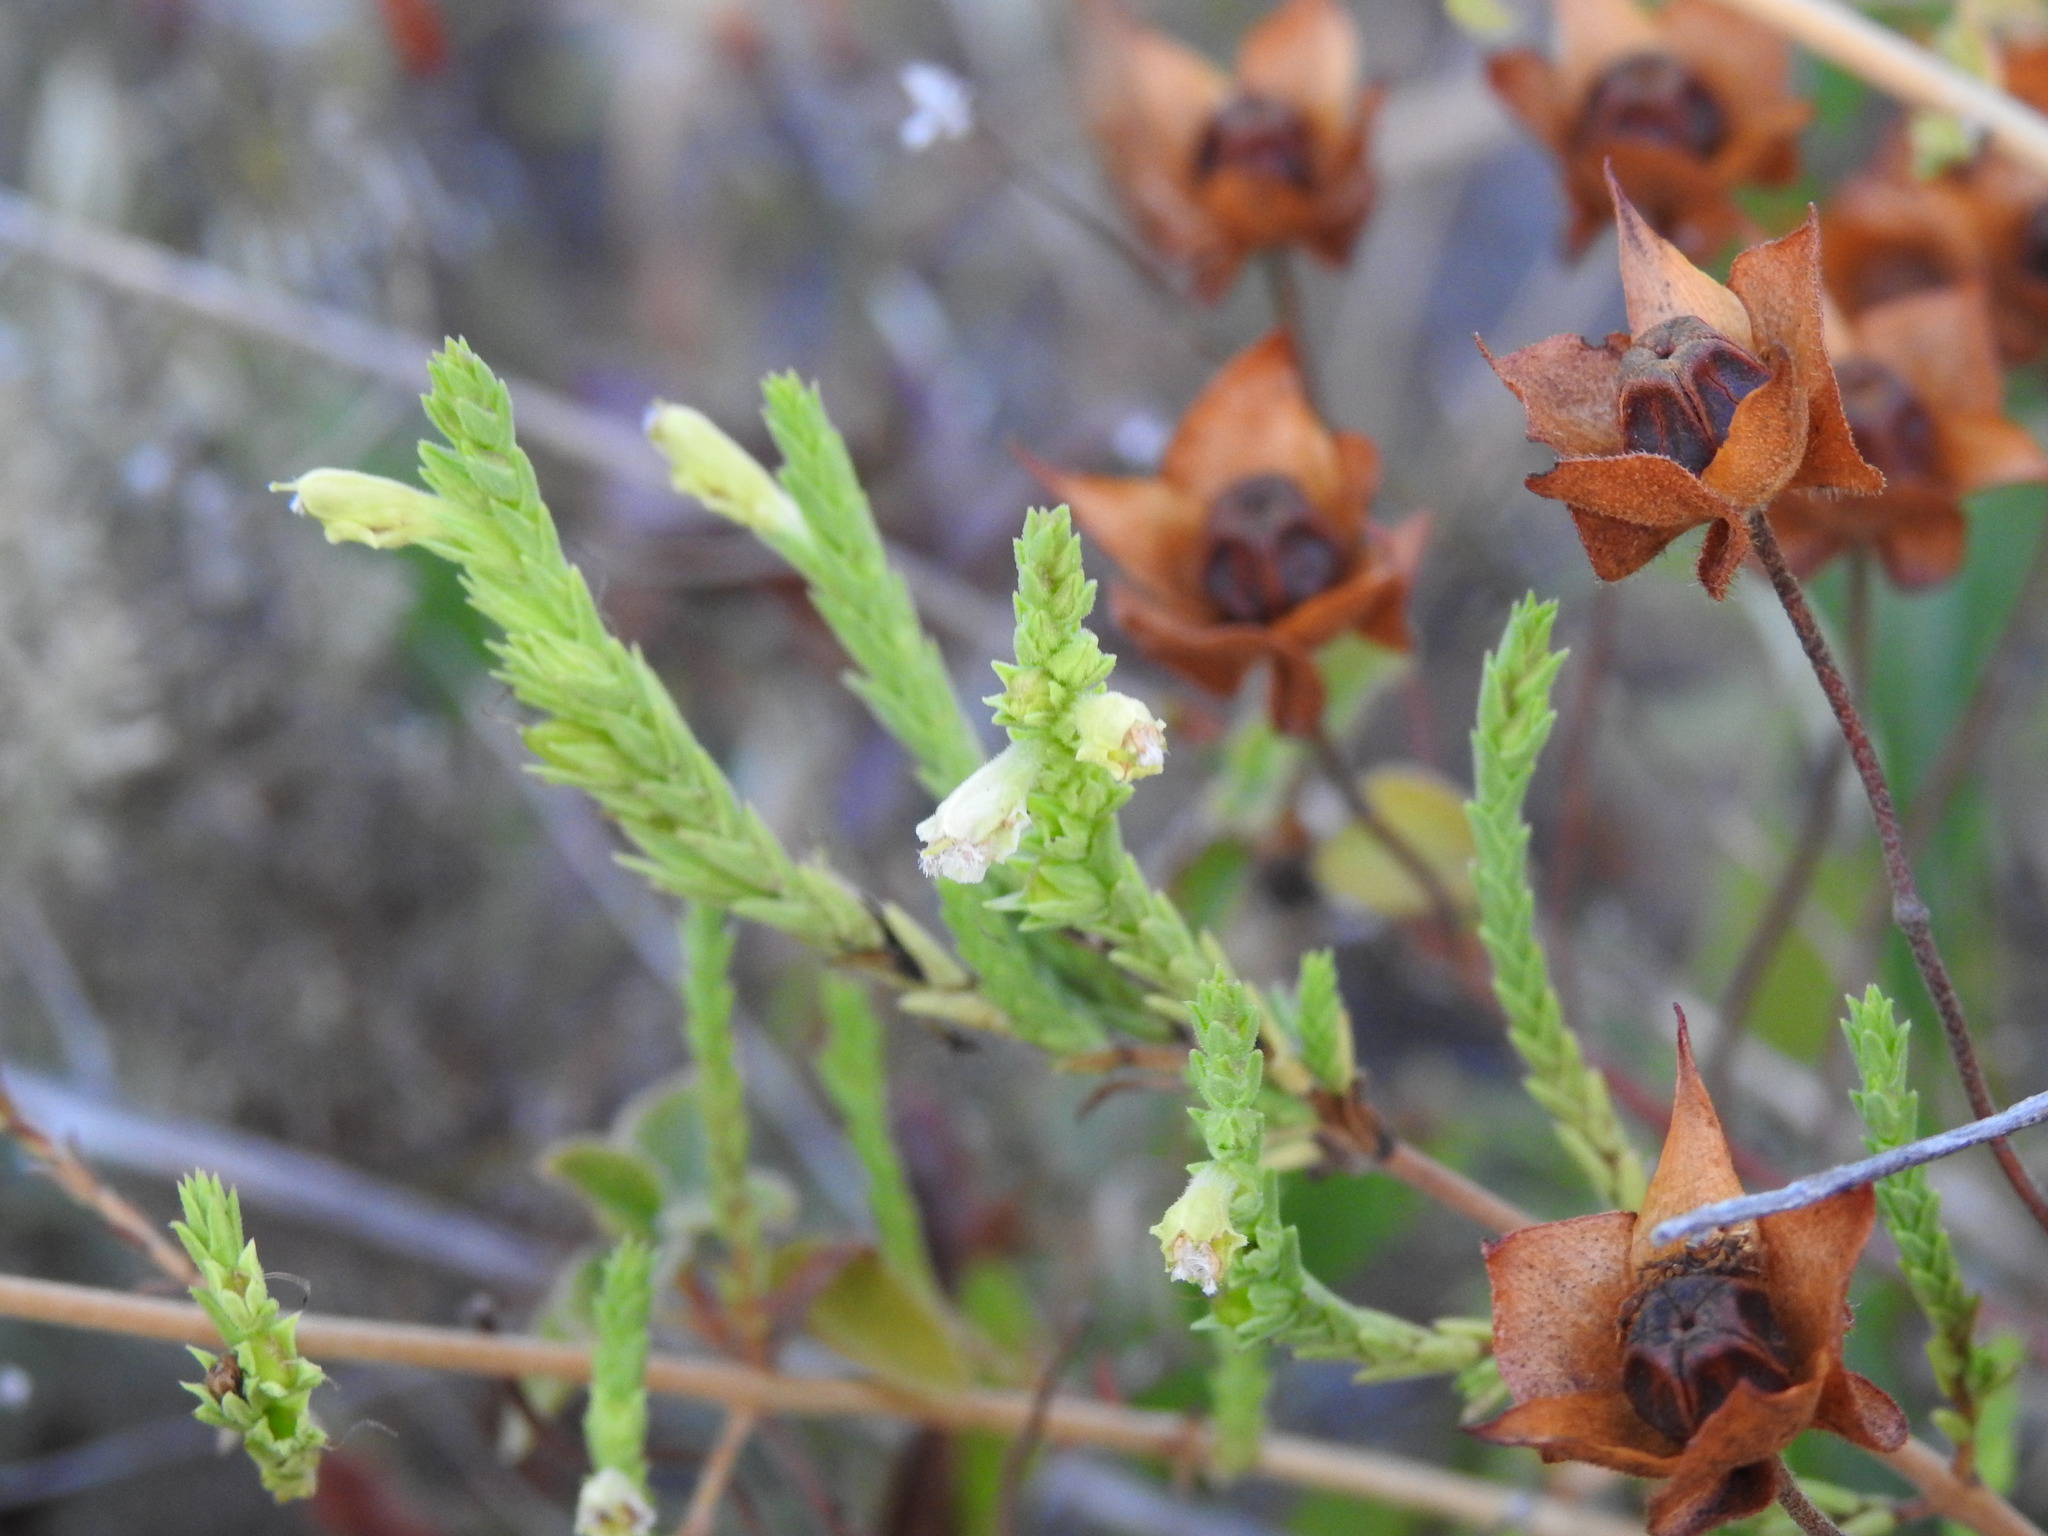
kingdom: Plantae
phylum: Tracheophyta
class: Magnoliopsida
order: Lamiales
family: Orobanchaceae
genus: Nothobartsia
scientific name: Nothobartsia asperrima
